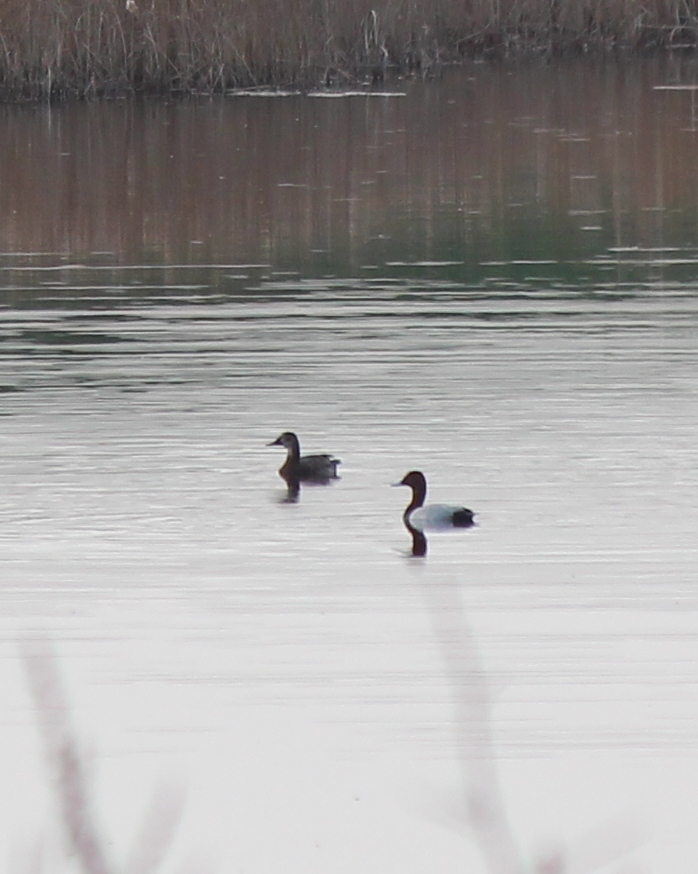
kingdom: Animalia
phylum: Chordata
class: Aves
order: Anseriformes
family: Anatidae
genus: Aythya
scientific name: Aythya ferina
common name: Common pochard
